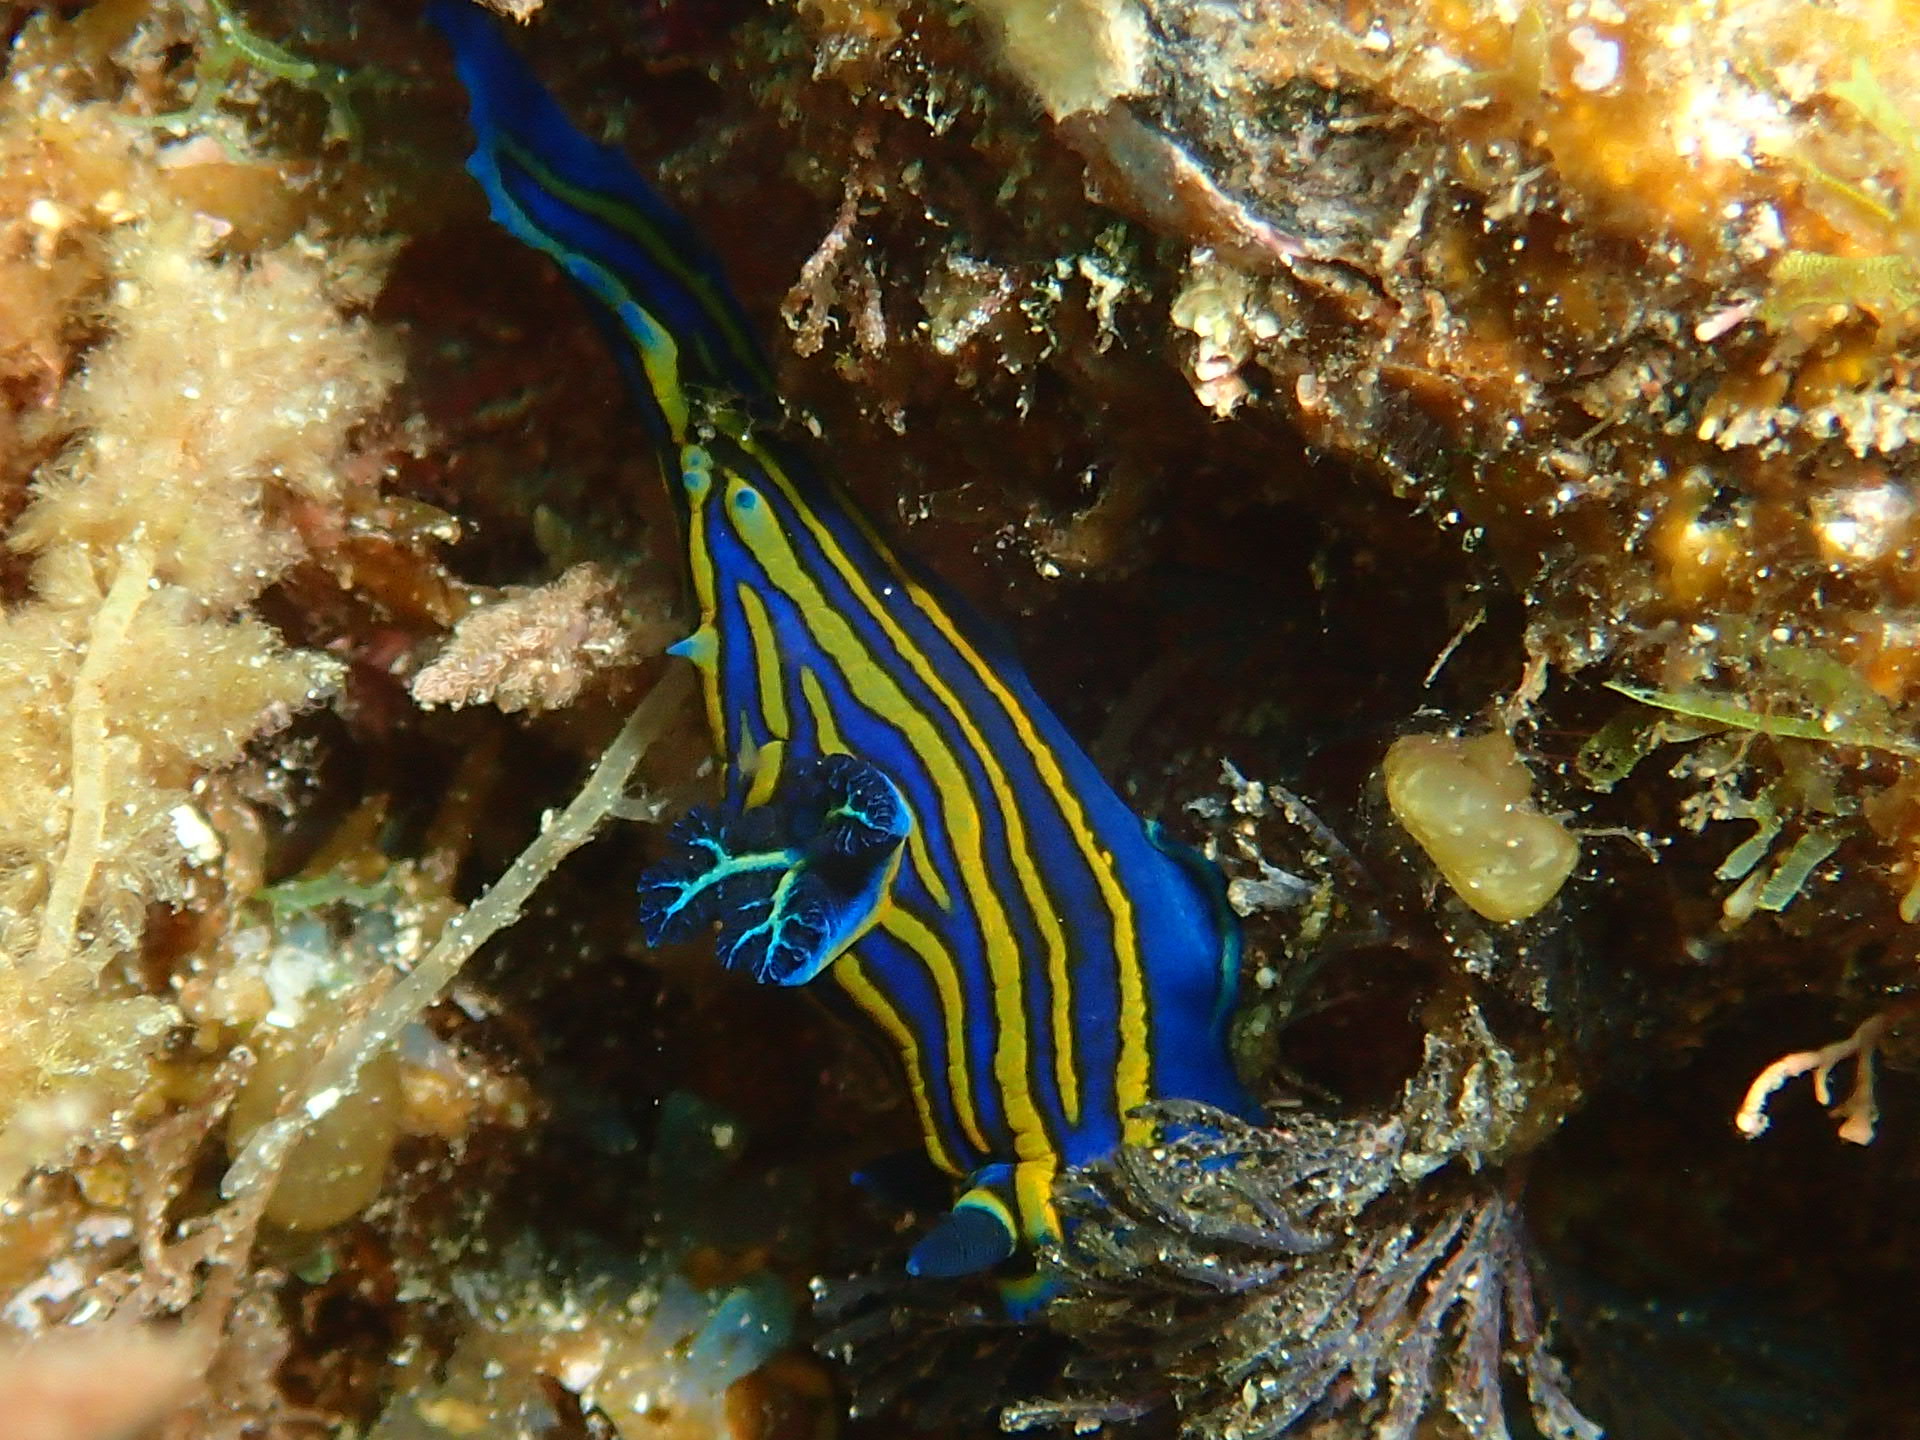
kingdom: Animalia
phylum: Mollusca
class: Gastropoda
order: Nudibranchia
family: Polyceridae
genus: Tambja
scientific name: Tambja ceutae
